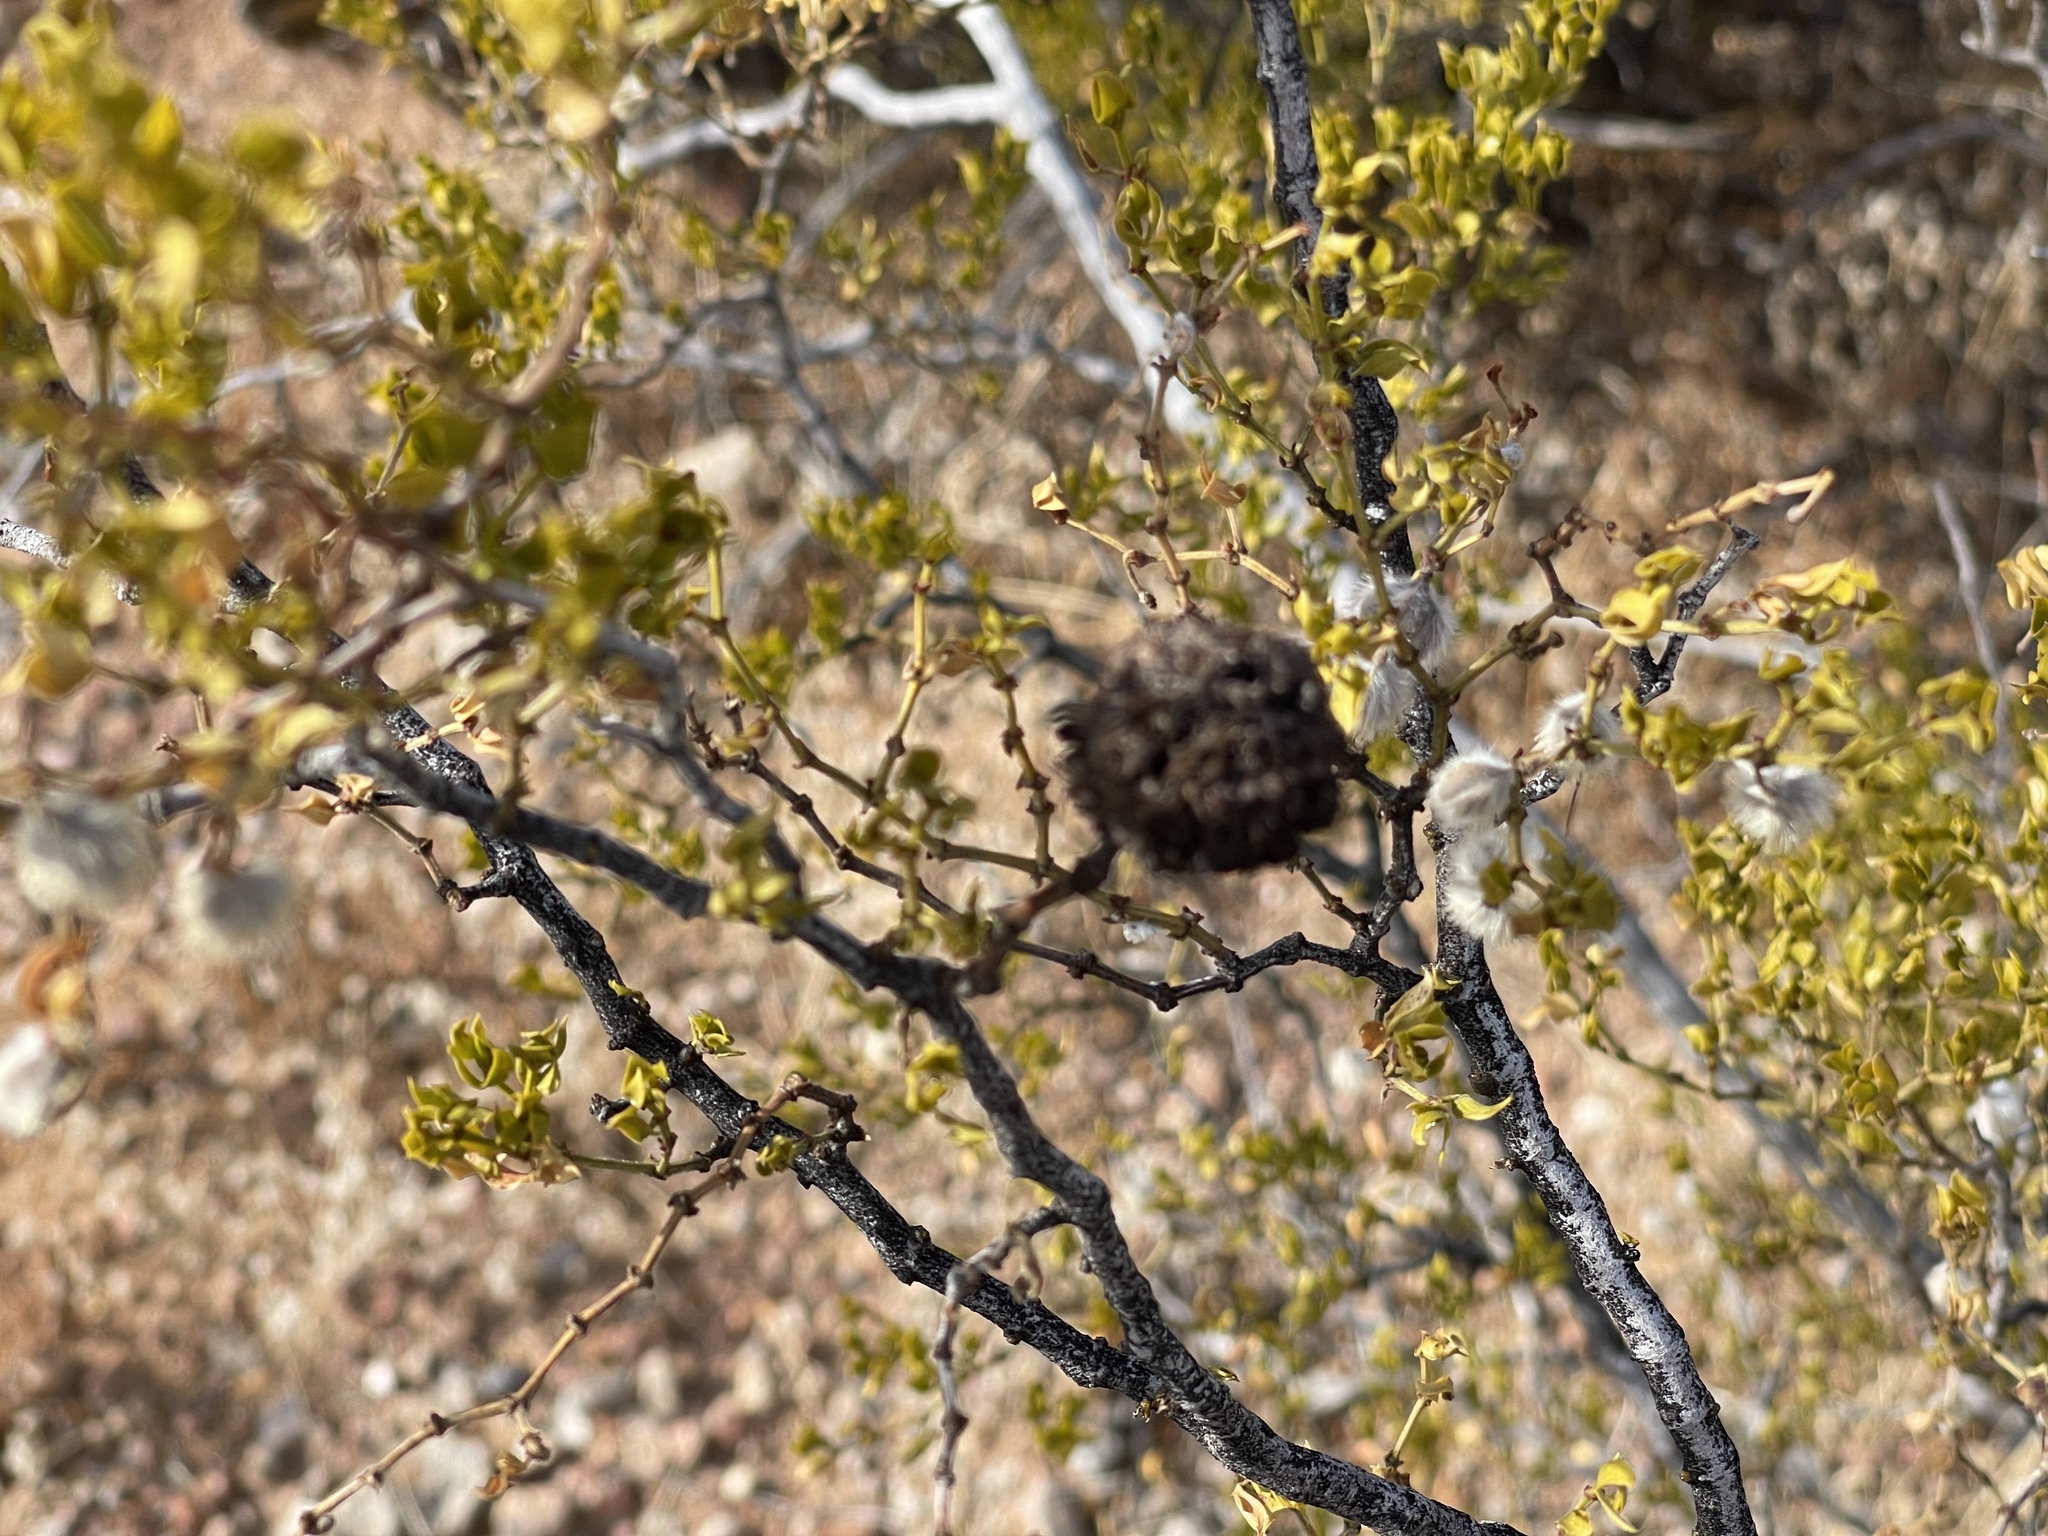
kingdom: Animalia
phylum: Arthropoda
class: Insecta
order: Diptera
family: Cecidomyiidae
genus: Asphondylia
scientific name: Asphondylia auripila
